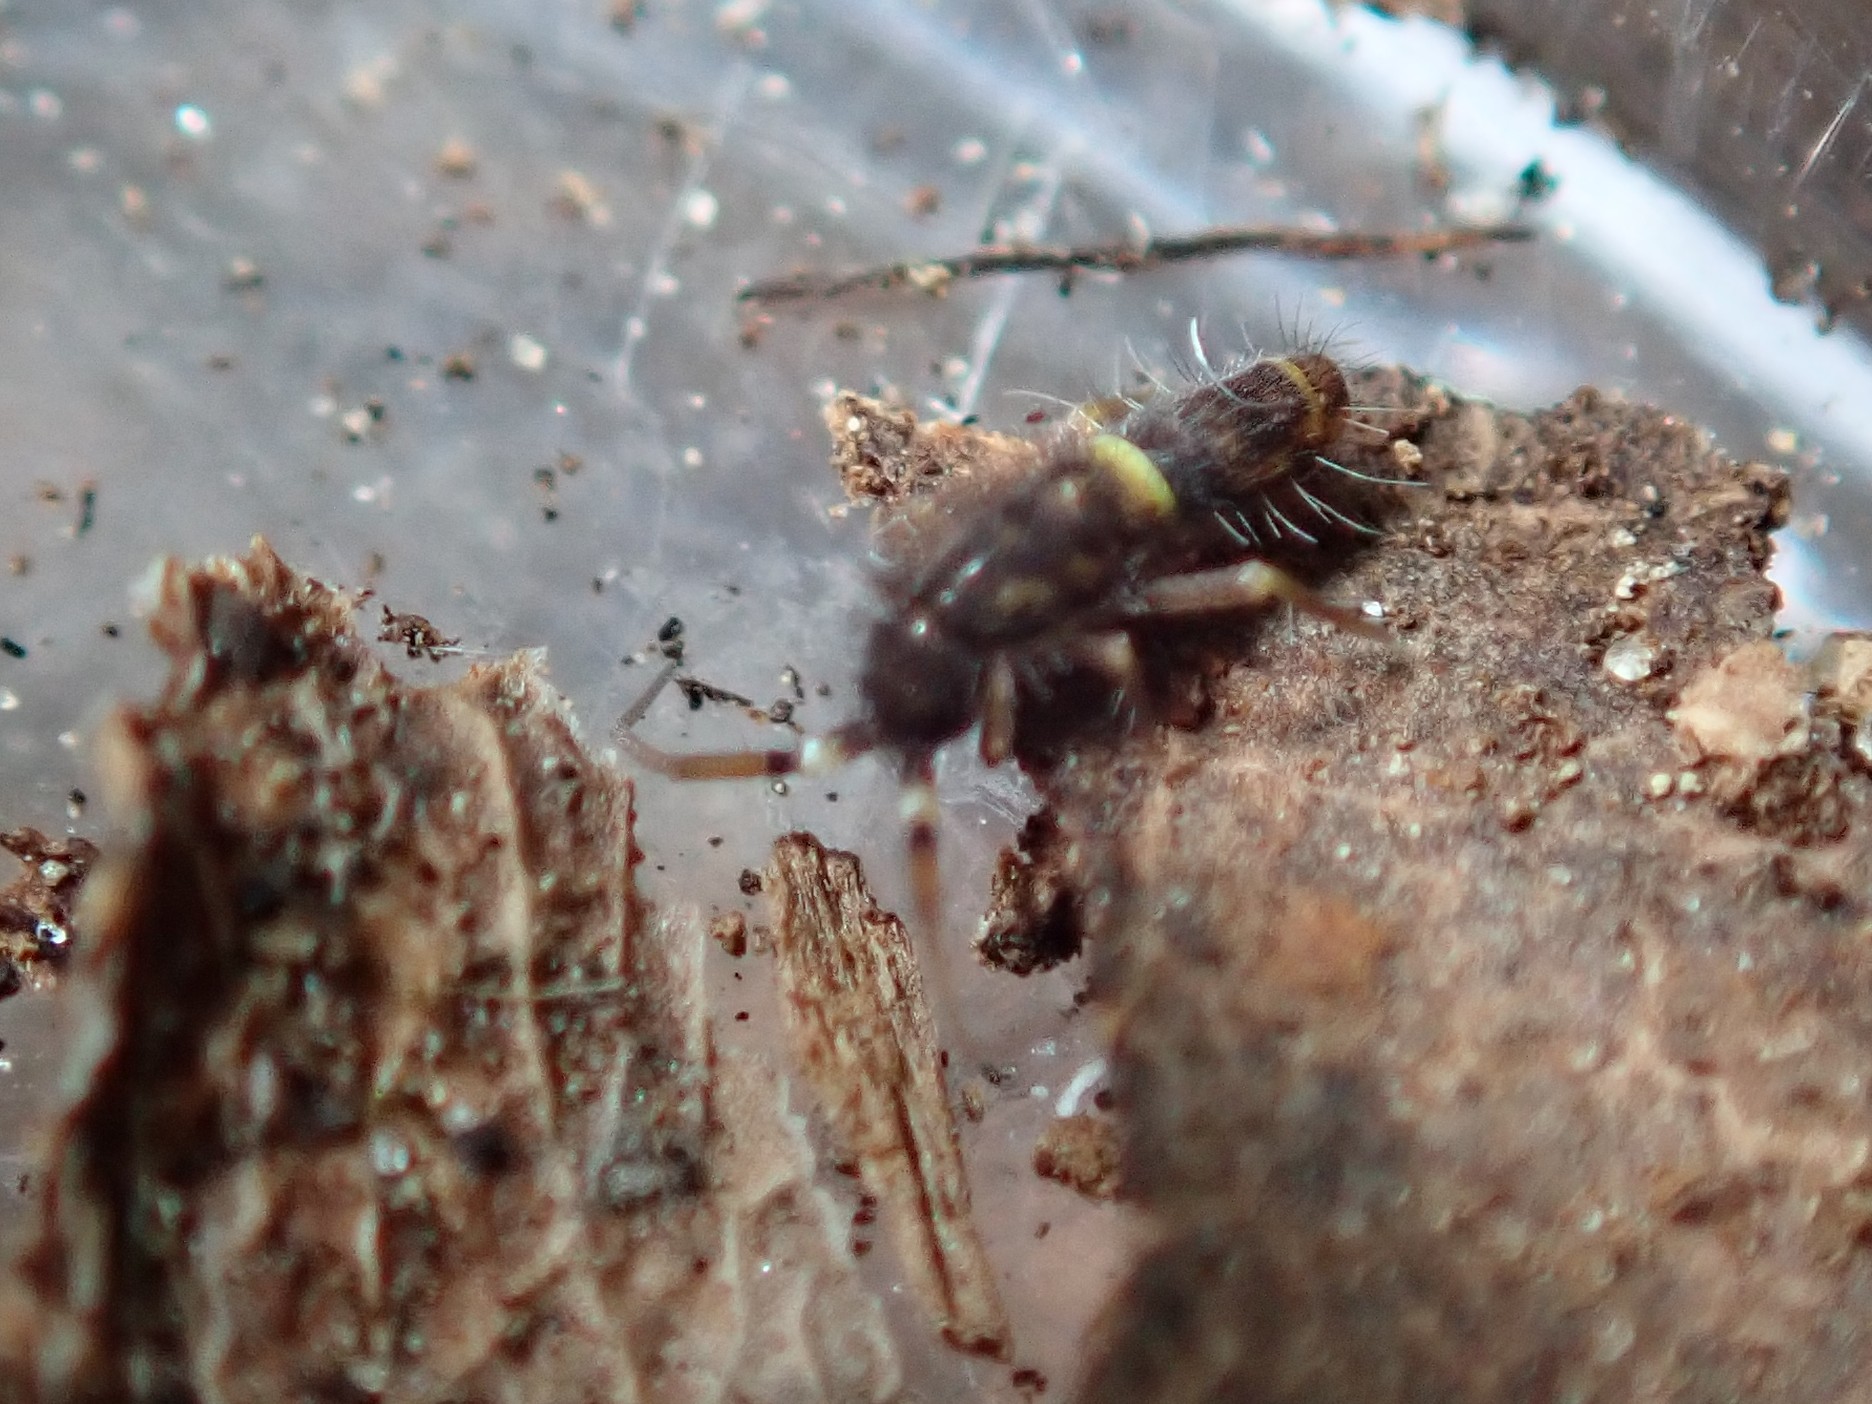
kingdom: Animalia
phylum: Arthropoda
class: Collembola
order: Entomobryomorpha
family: Orchesellidae
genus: Orchesella
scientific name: Orchesella cincta
